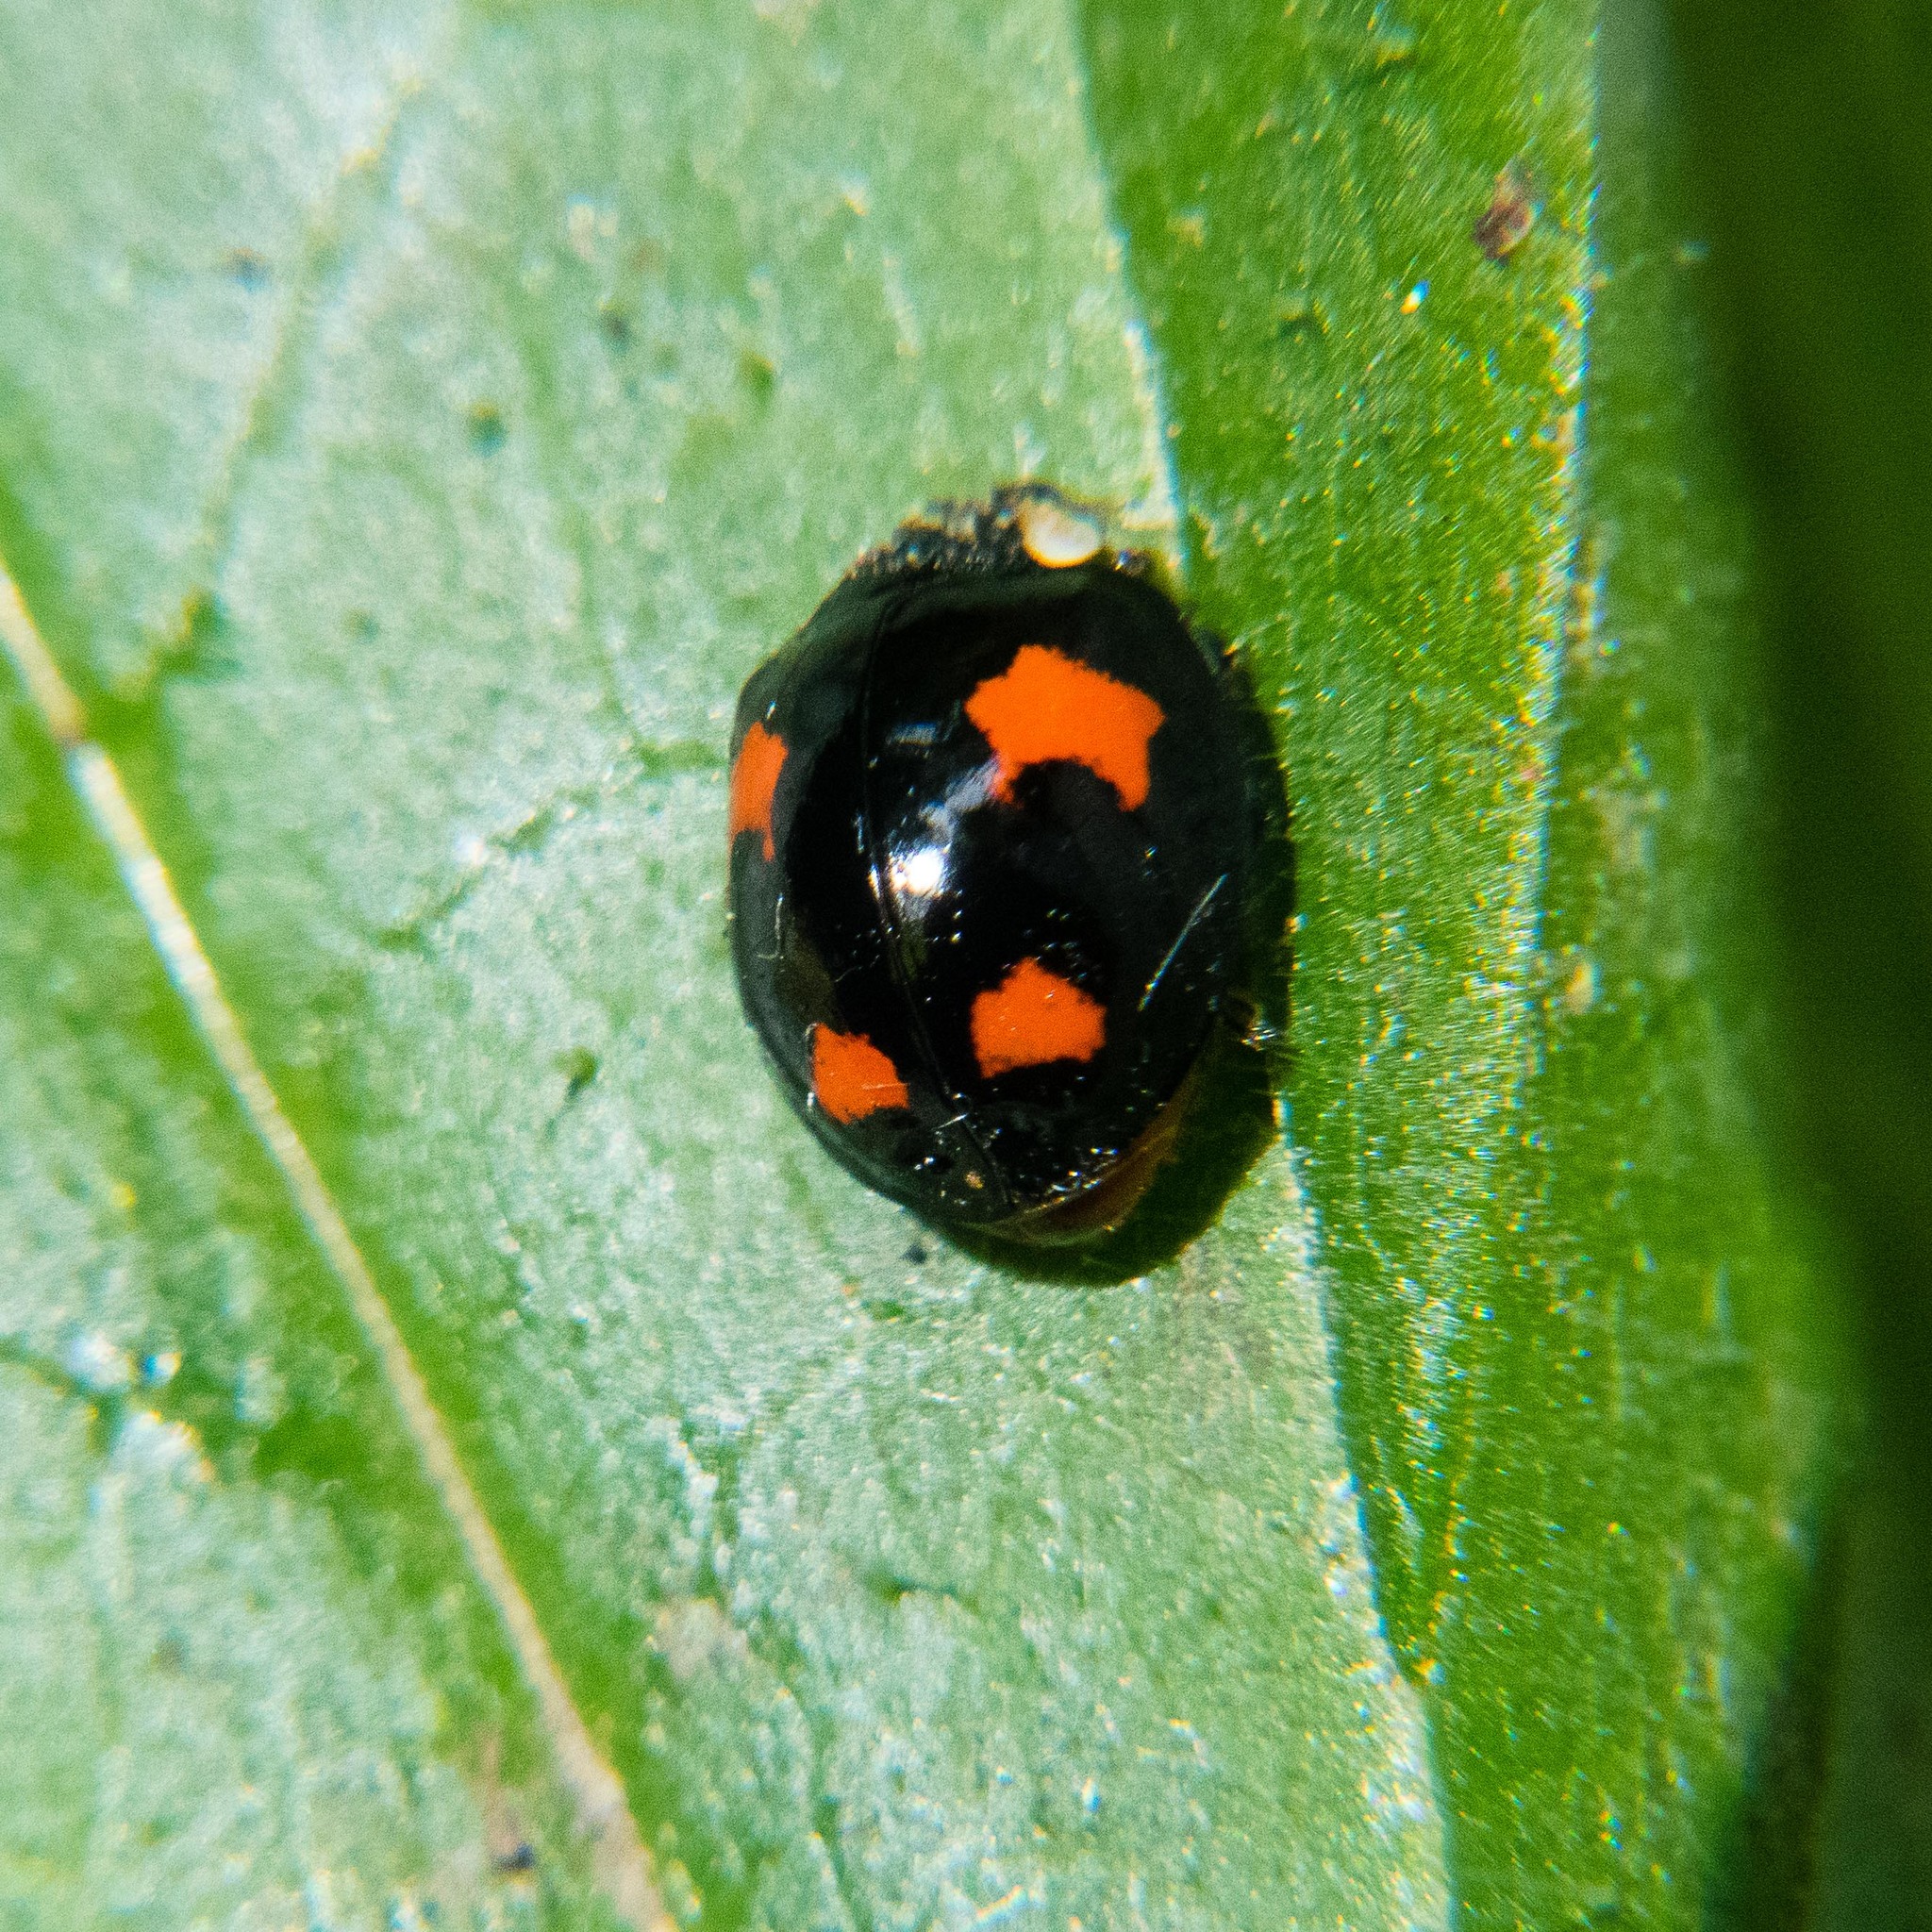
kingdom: Animalia
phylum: Arthropoda
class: Insecta
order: Coleoptera
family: Coccinellidae
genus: Harmonia
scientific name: Harmonia axyridis
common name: Harlequin ladybird
